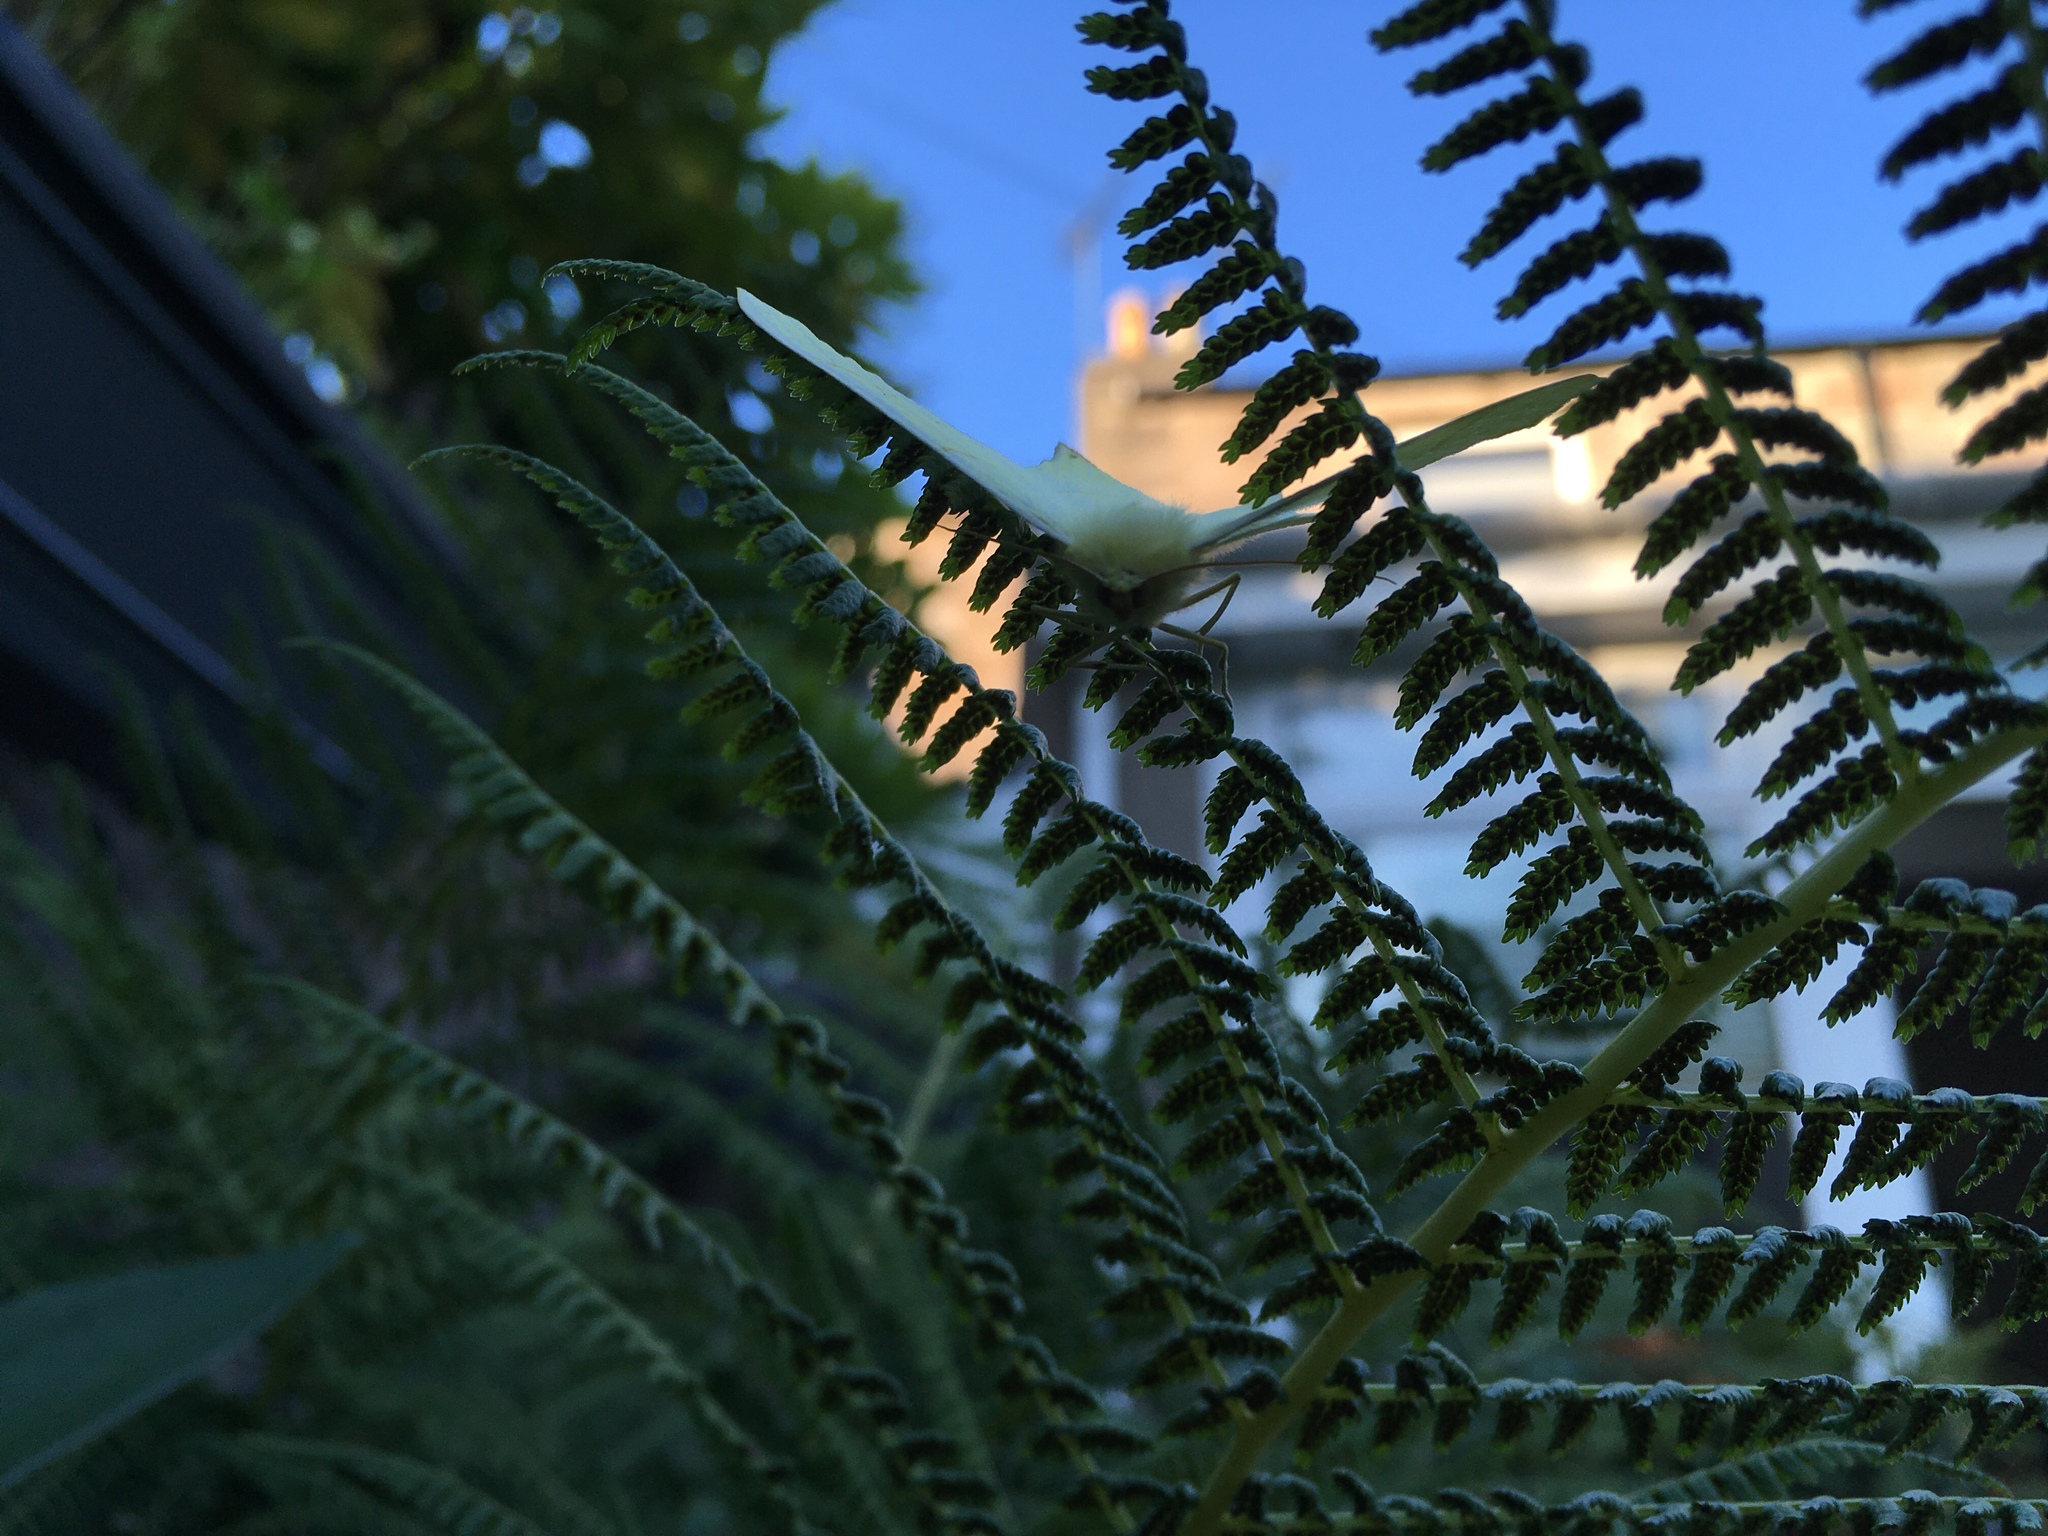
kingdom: Animalia
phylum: Arthropoda
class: Insecta
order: Lepidoptera
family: Geometridae
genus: Ourapteryx
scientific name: Ourapteryx sambucaria
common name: Swallow-tailed moth
